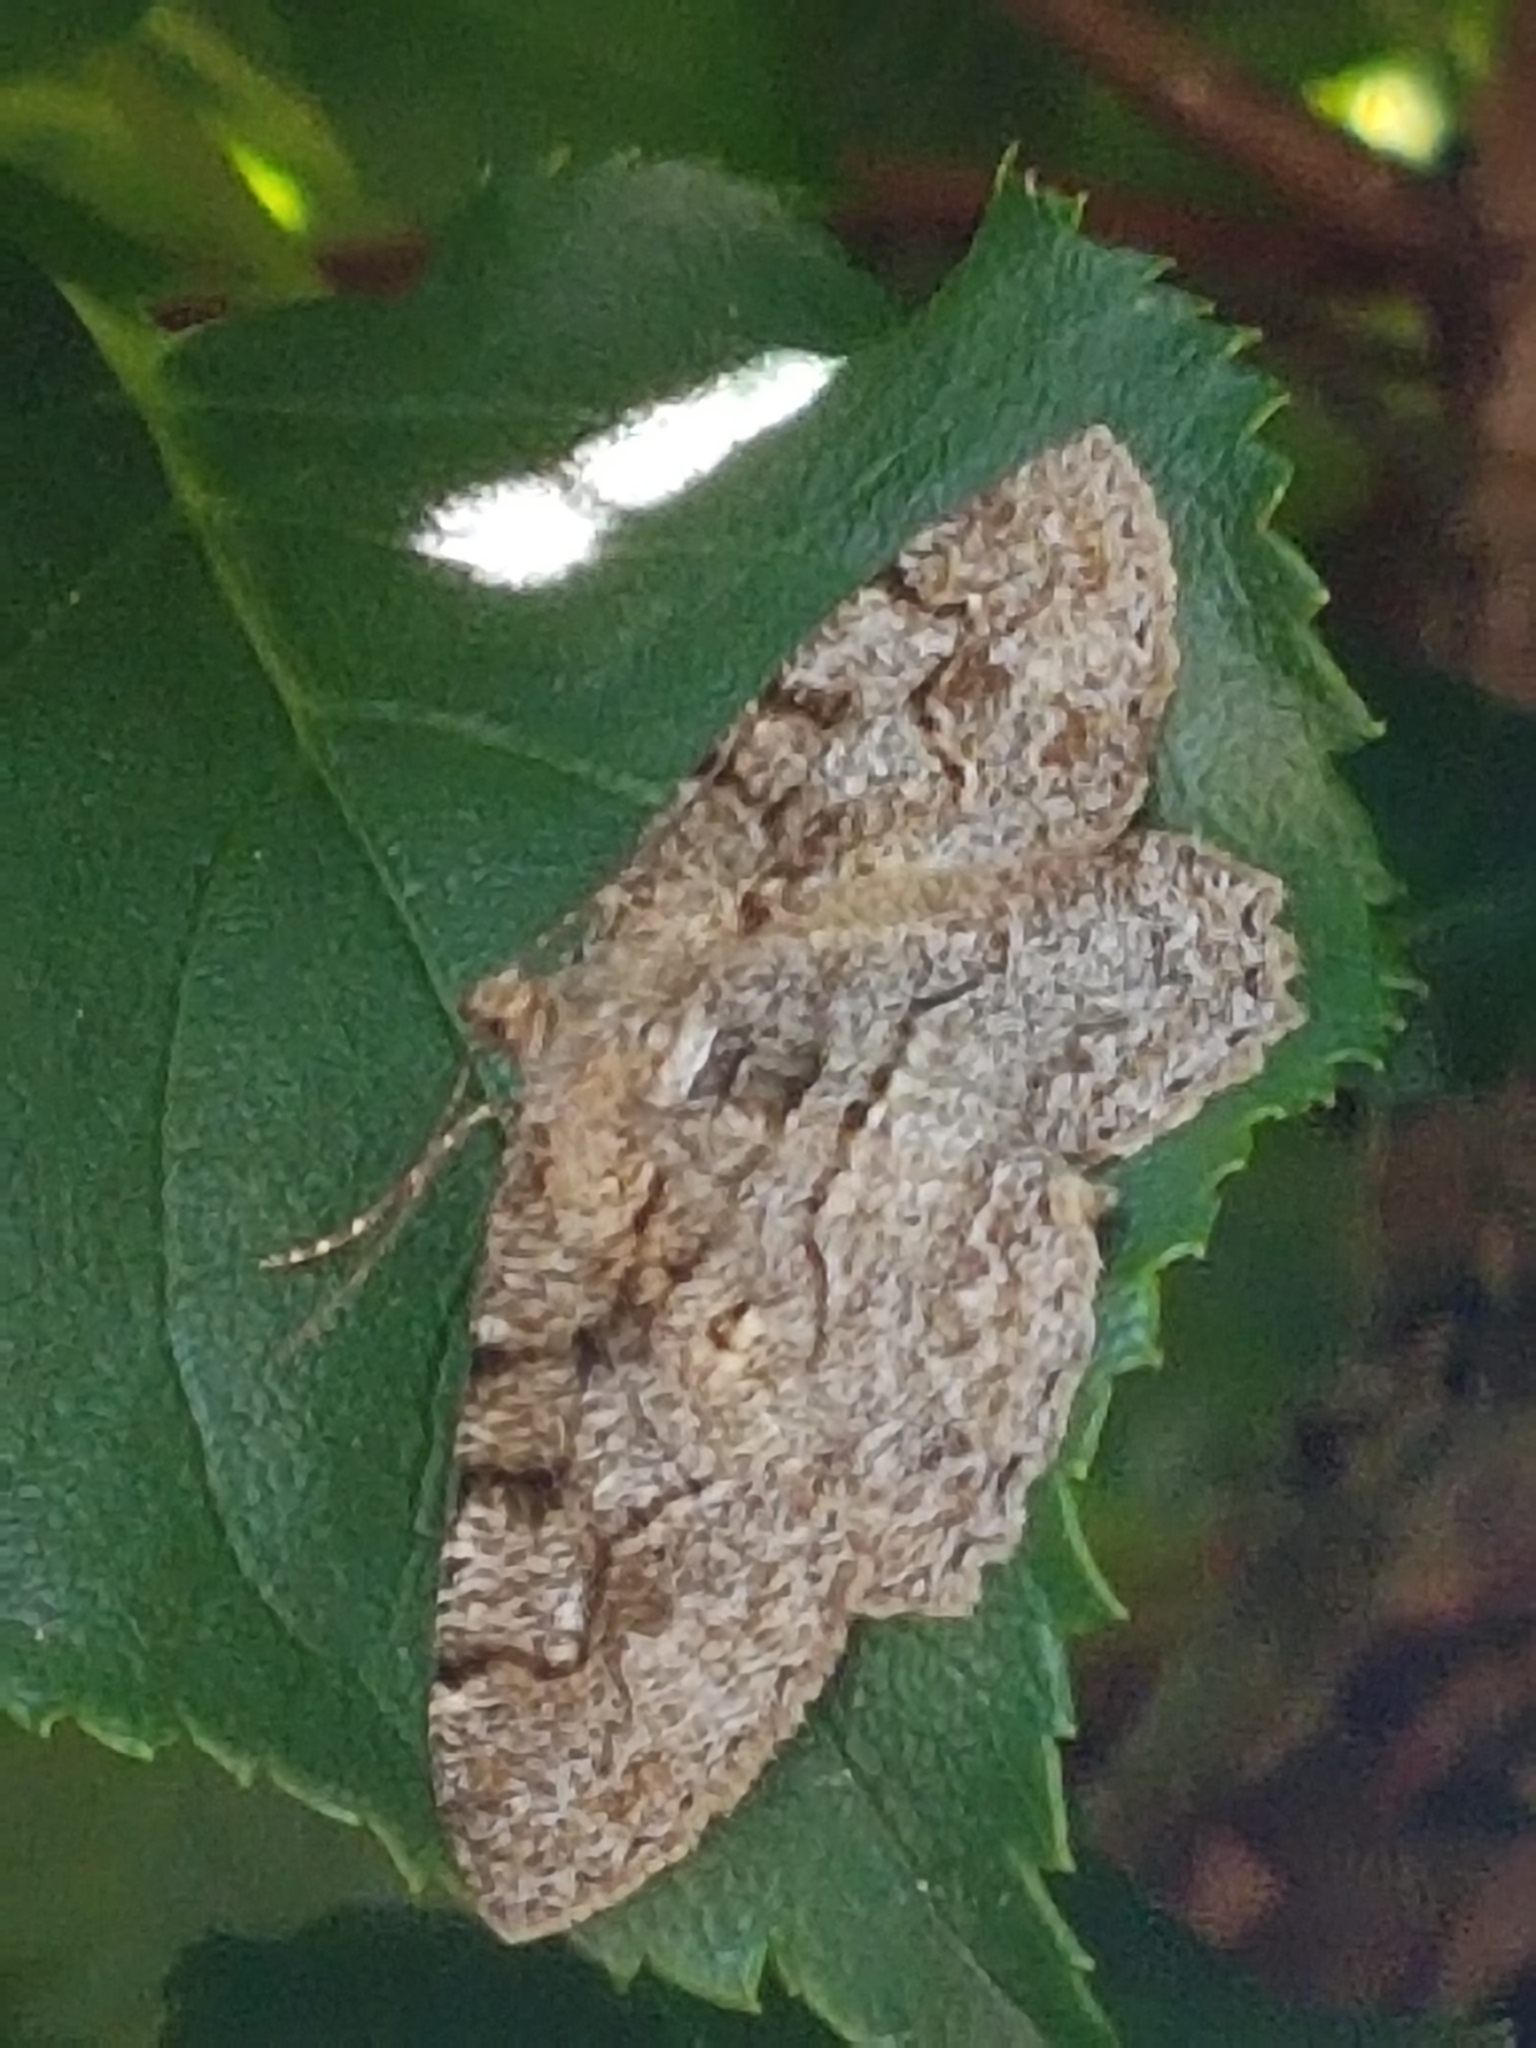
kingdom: Animalia
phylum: Arthropoda
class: Insecta
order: Lepidoptera
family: Geometridae
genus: Alcis
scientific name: Alcis repandata
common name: Mottled beauty
